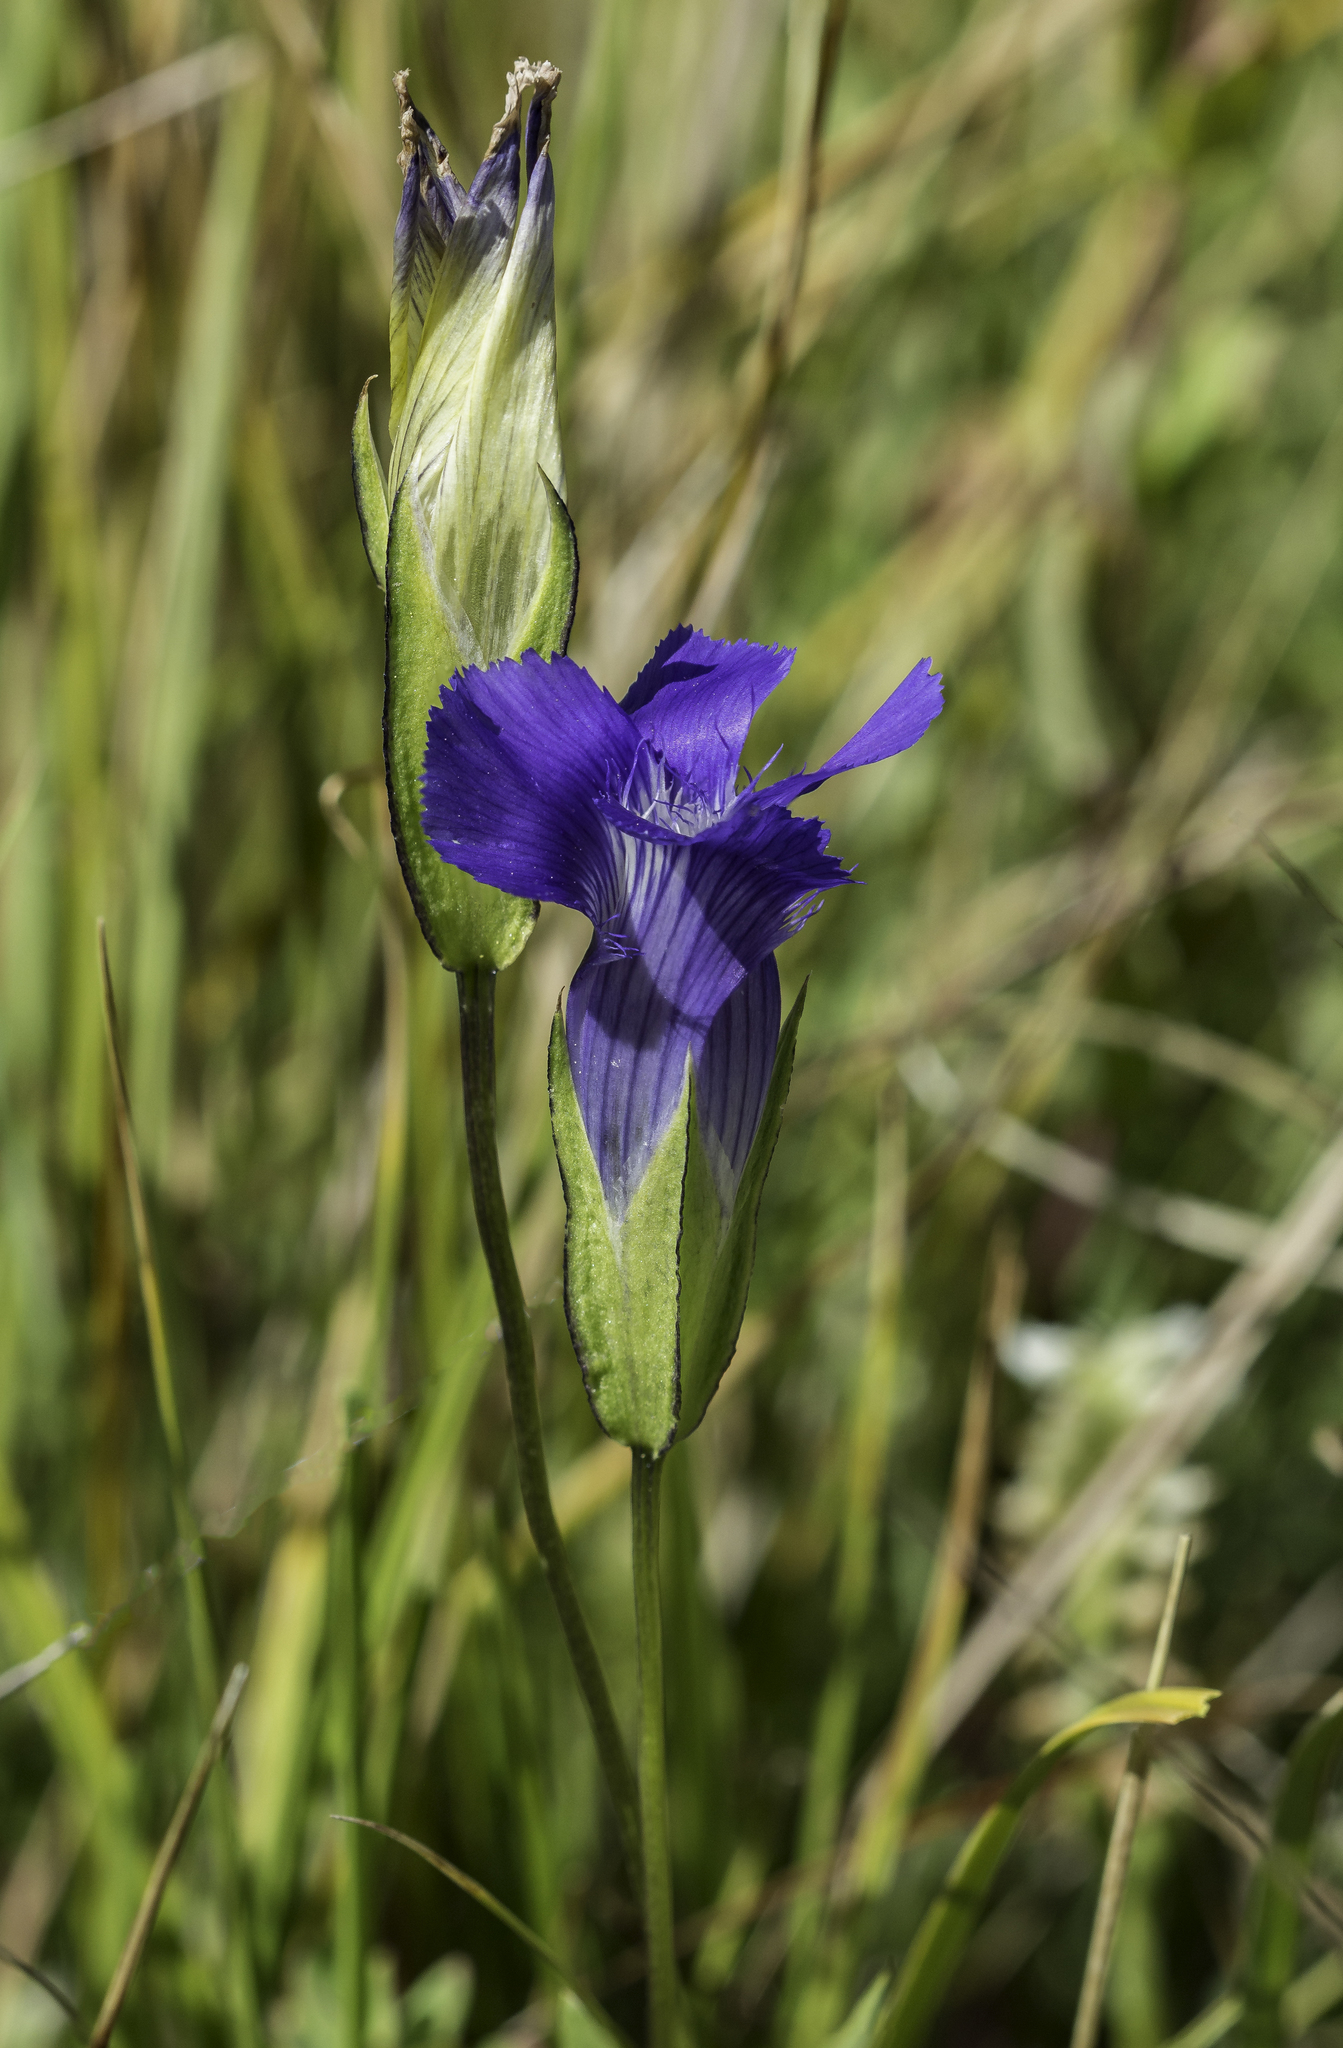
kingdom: Plantae
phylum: Tracheophyta
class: Magnoliopsida
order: Gentianales
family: Gentianaceae
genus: Gentianopsis
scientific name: Gentianopsis thermalis
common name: Rocky mountain fringed-gentian
